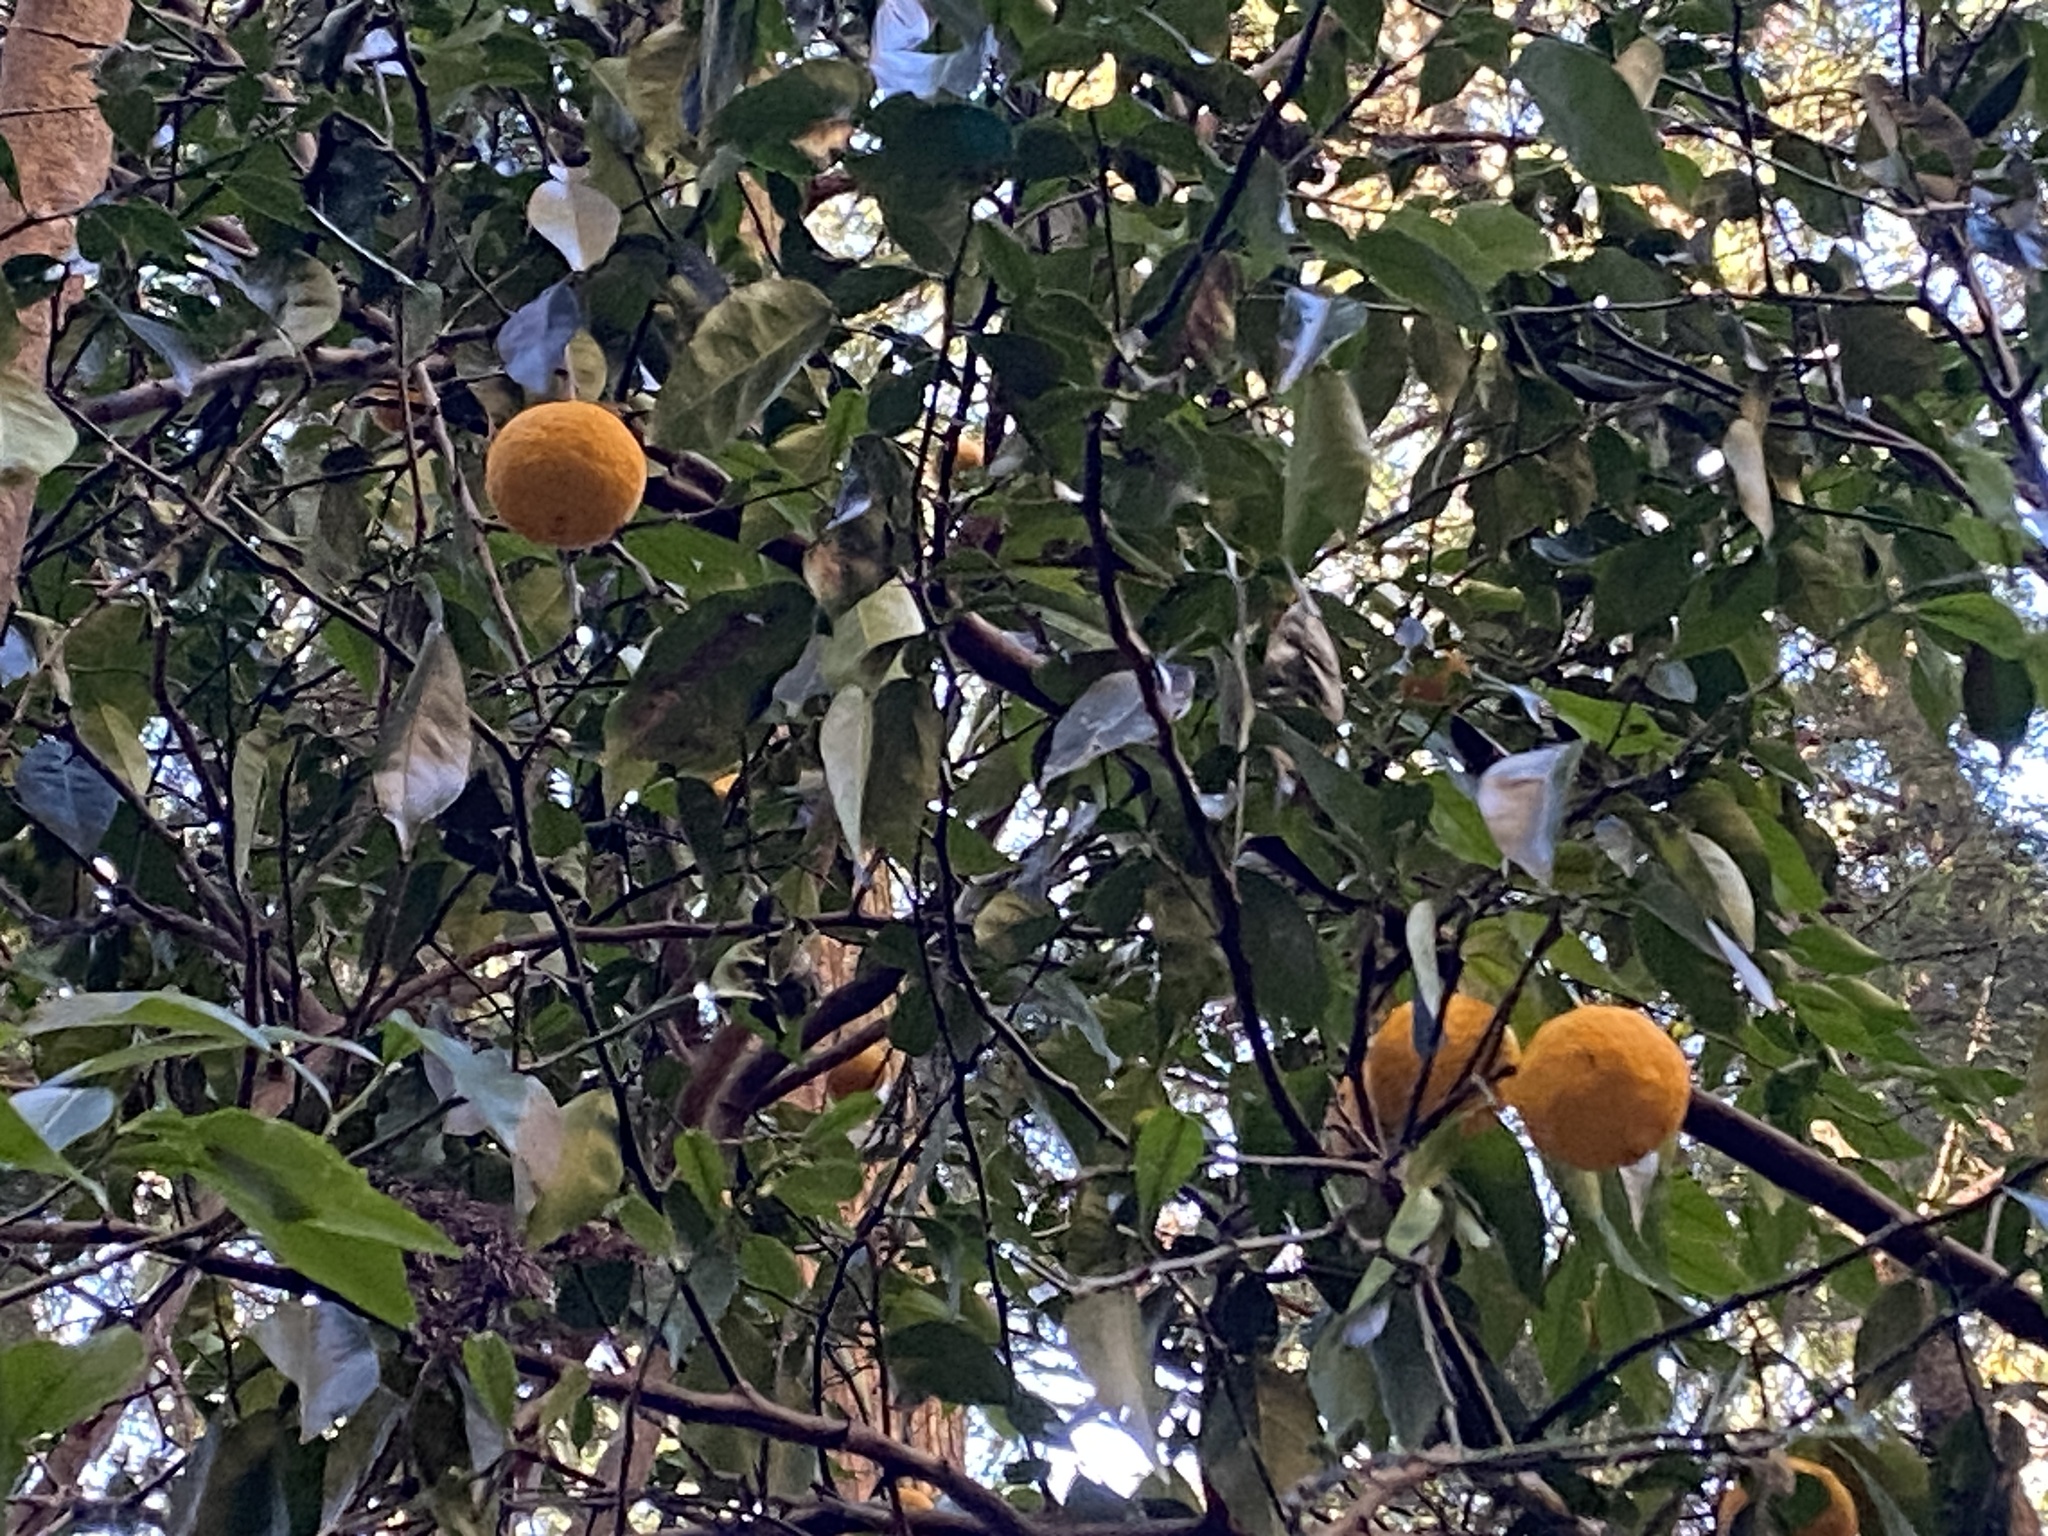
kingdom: Plantae
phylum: Tracheophyta
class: Magnoliopsida
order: Sapindales
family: Rutaceae
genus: Citrus
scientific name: Citrus junos
